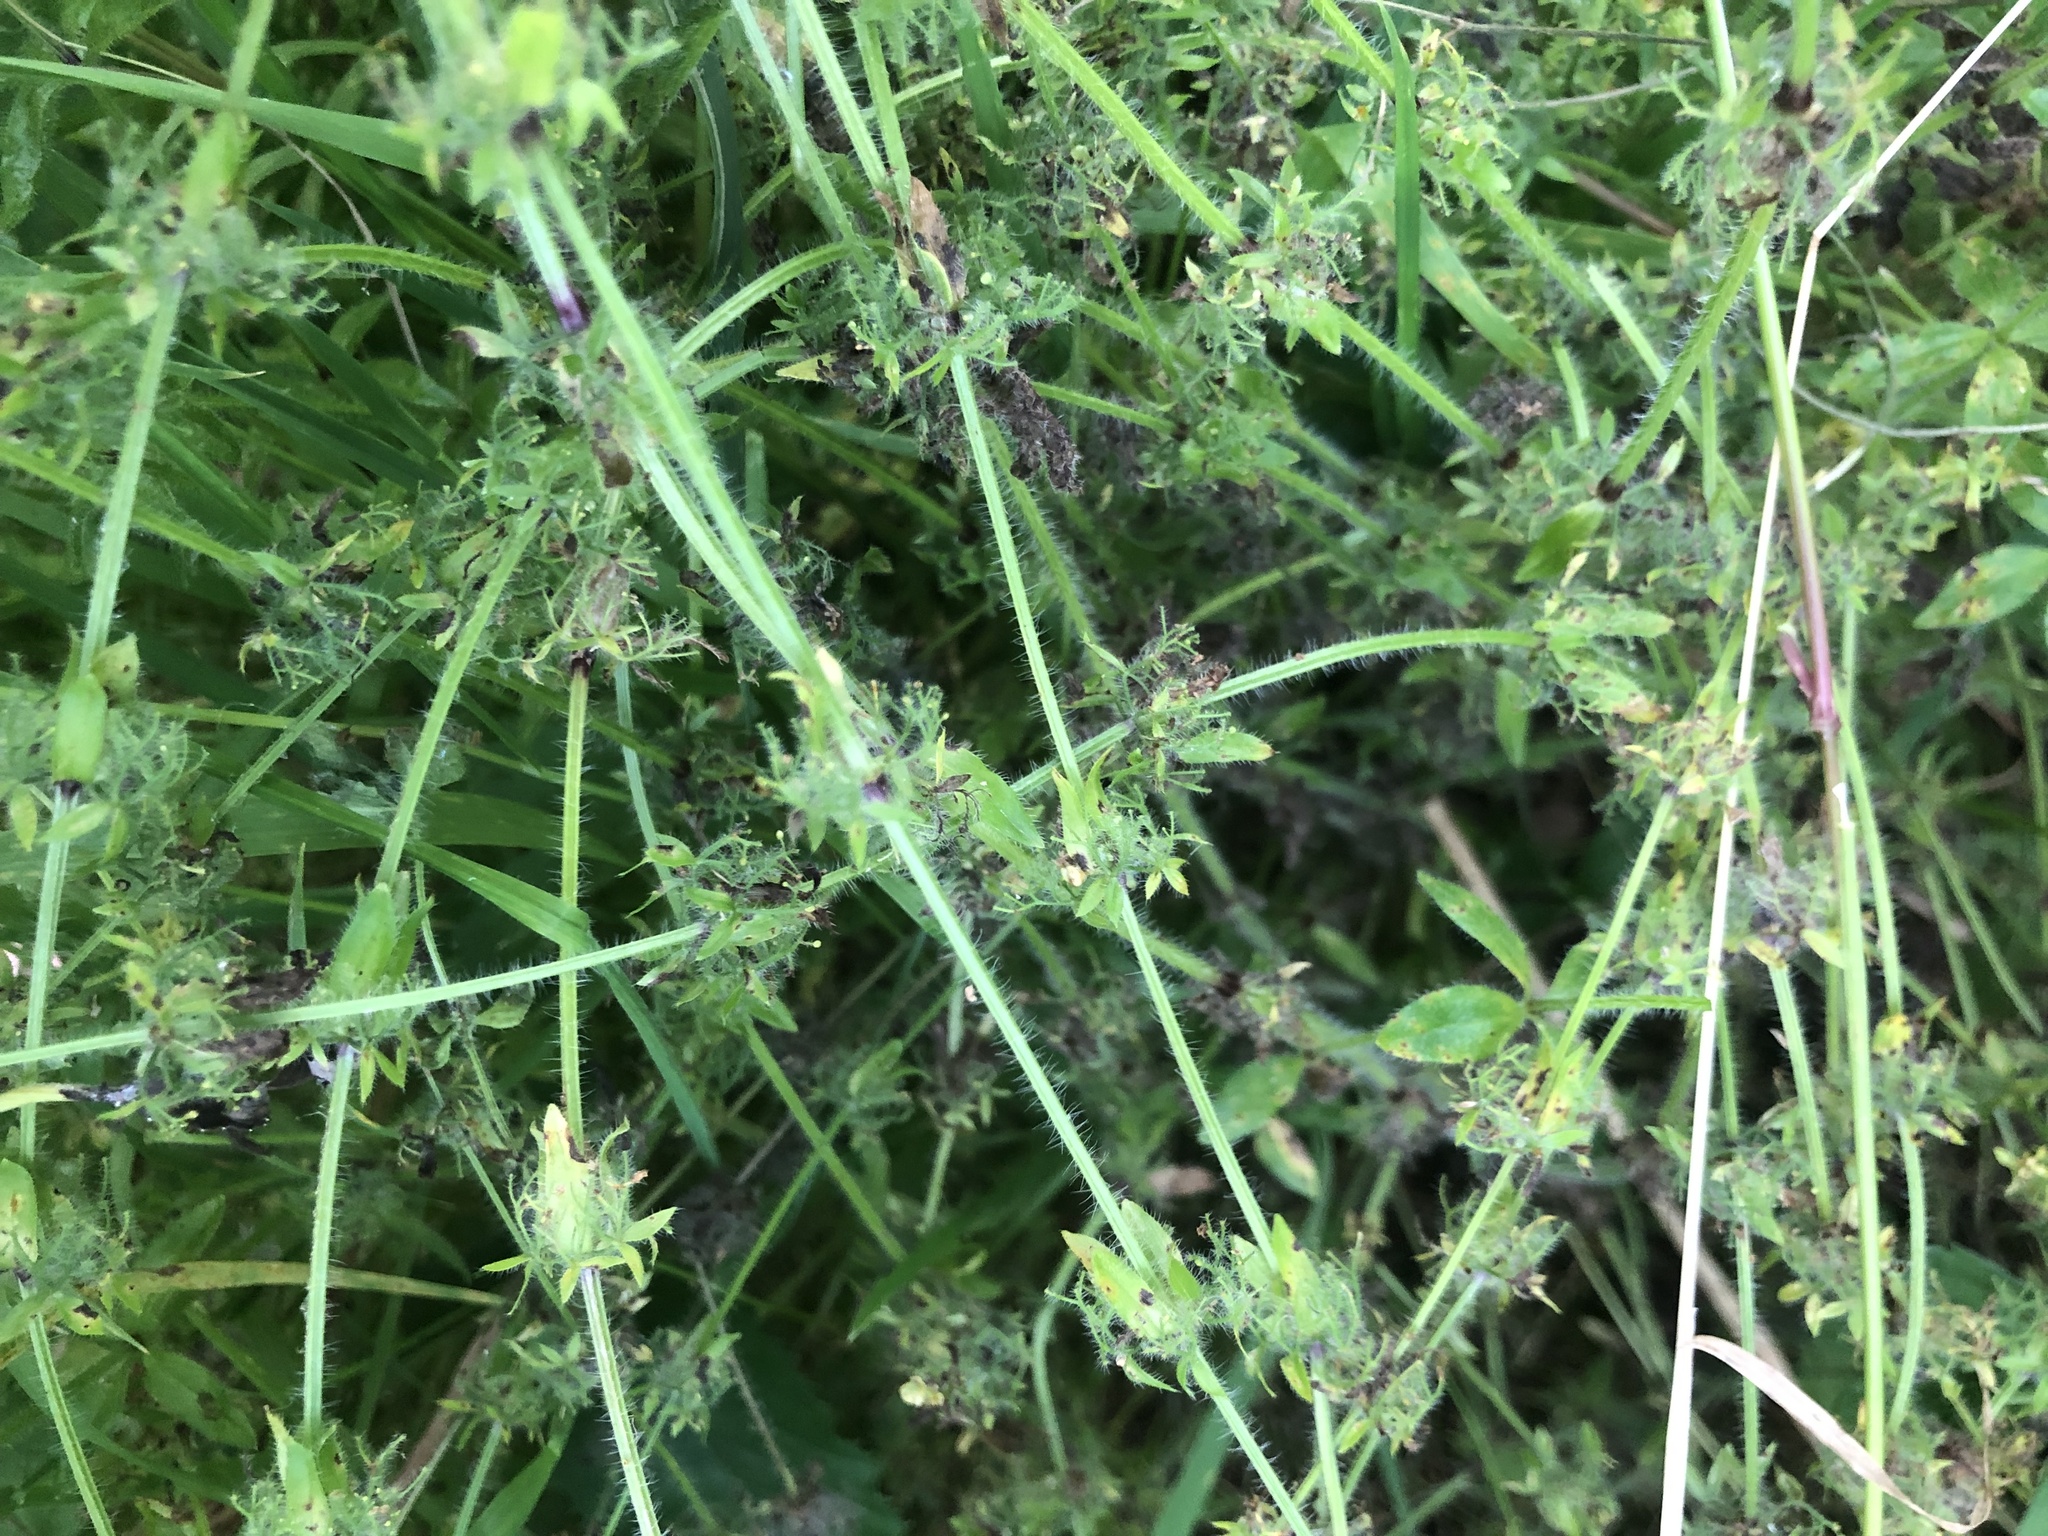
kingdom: Plantae
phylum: Tracheophyta
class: Magnoliopsida
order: Gentianales
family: Rubiaceae
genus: Cruciata
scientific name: Cruciata laevipes
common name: Crosswort
